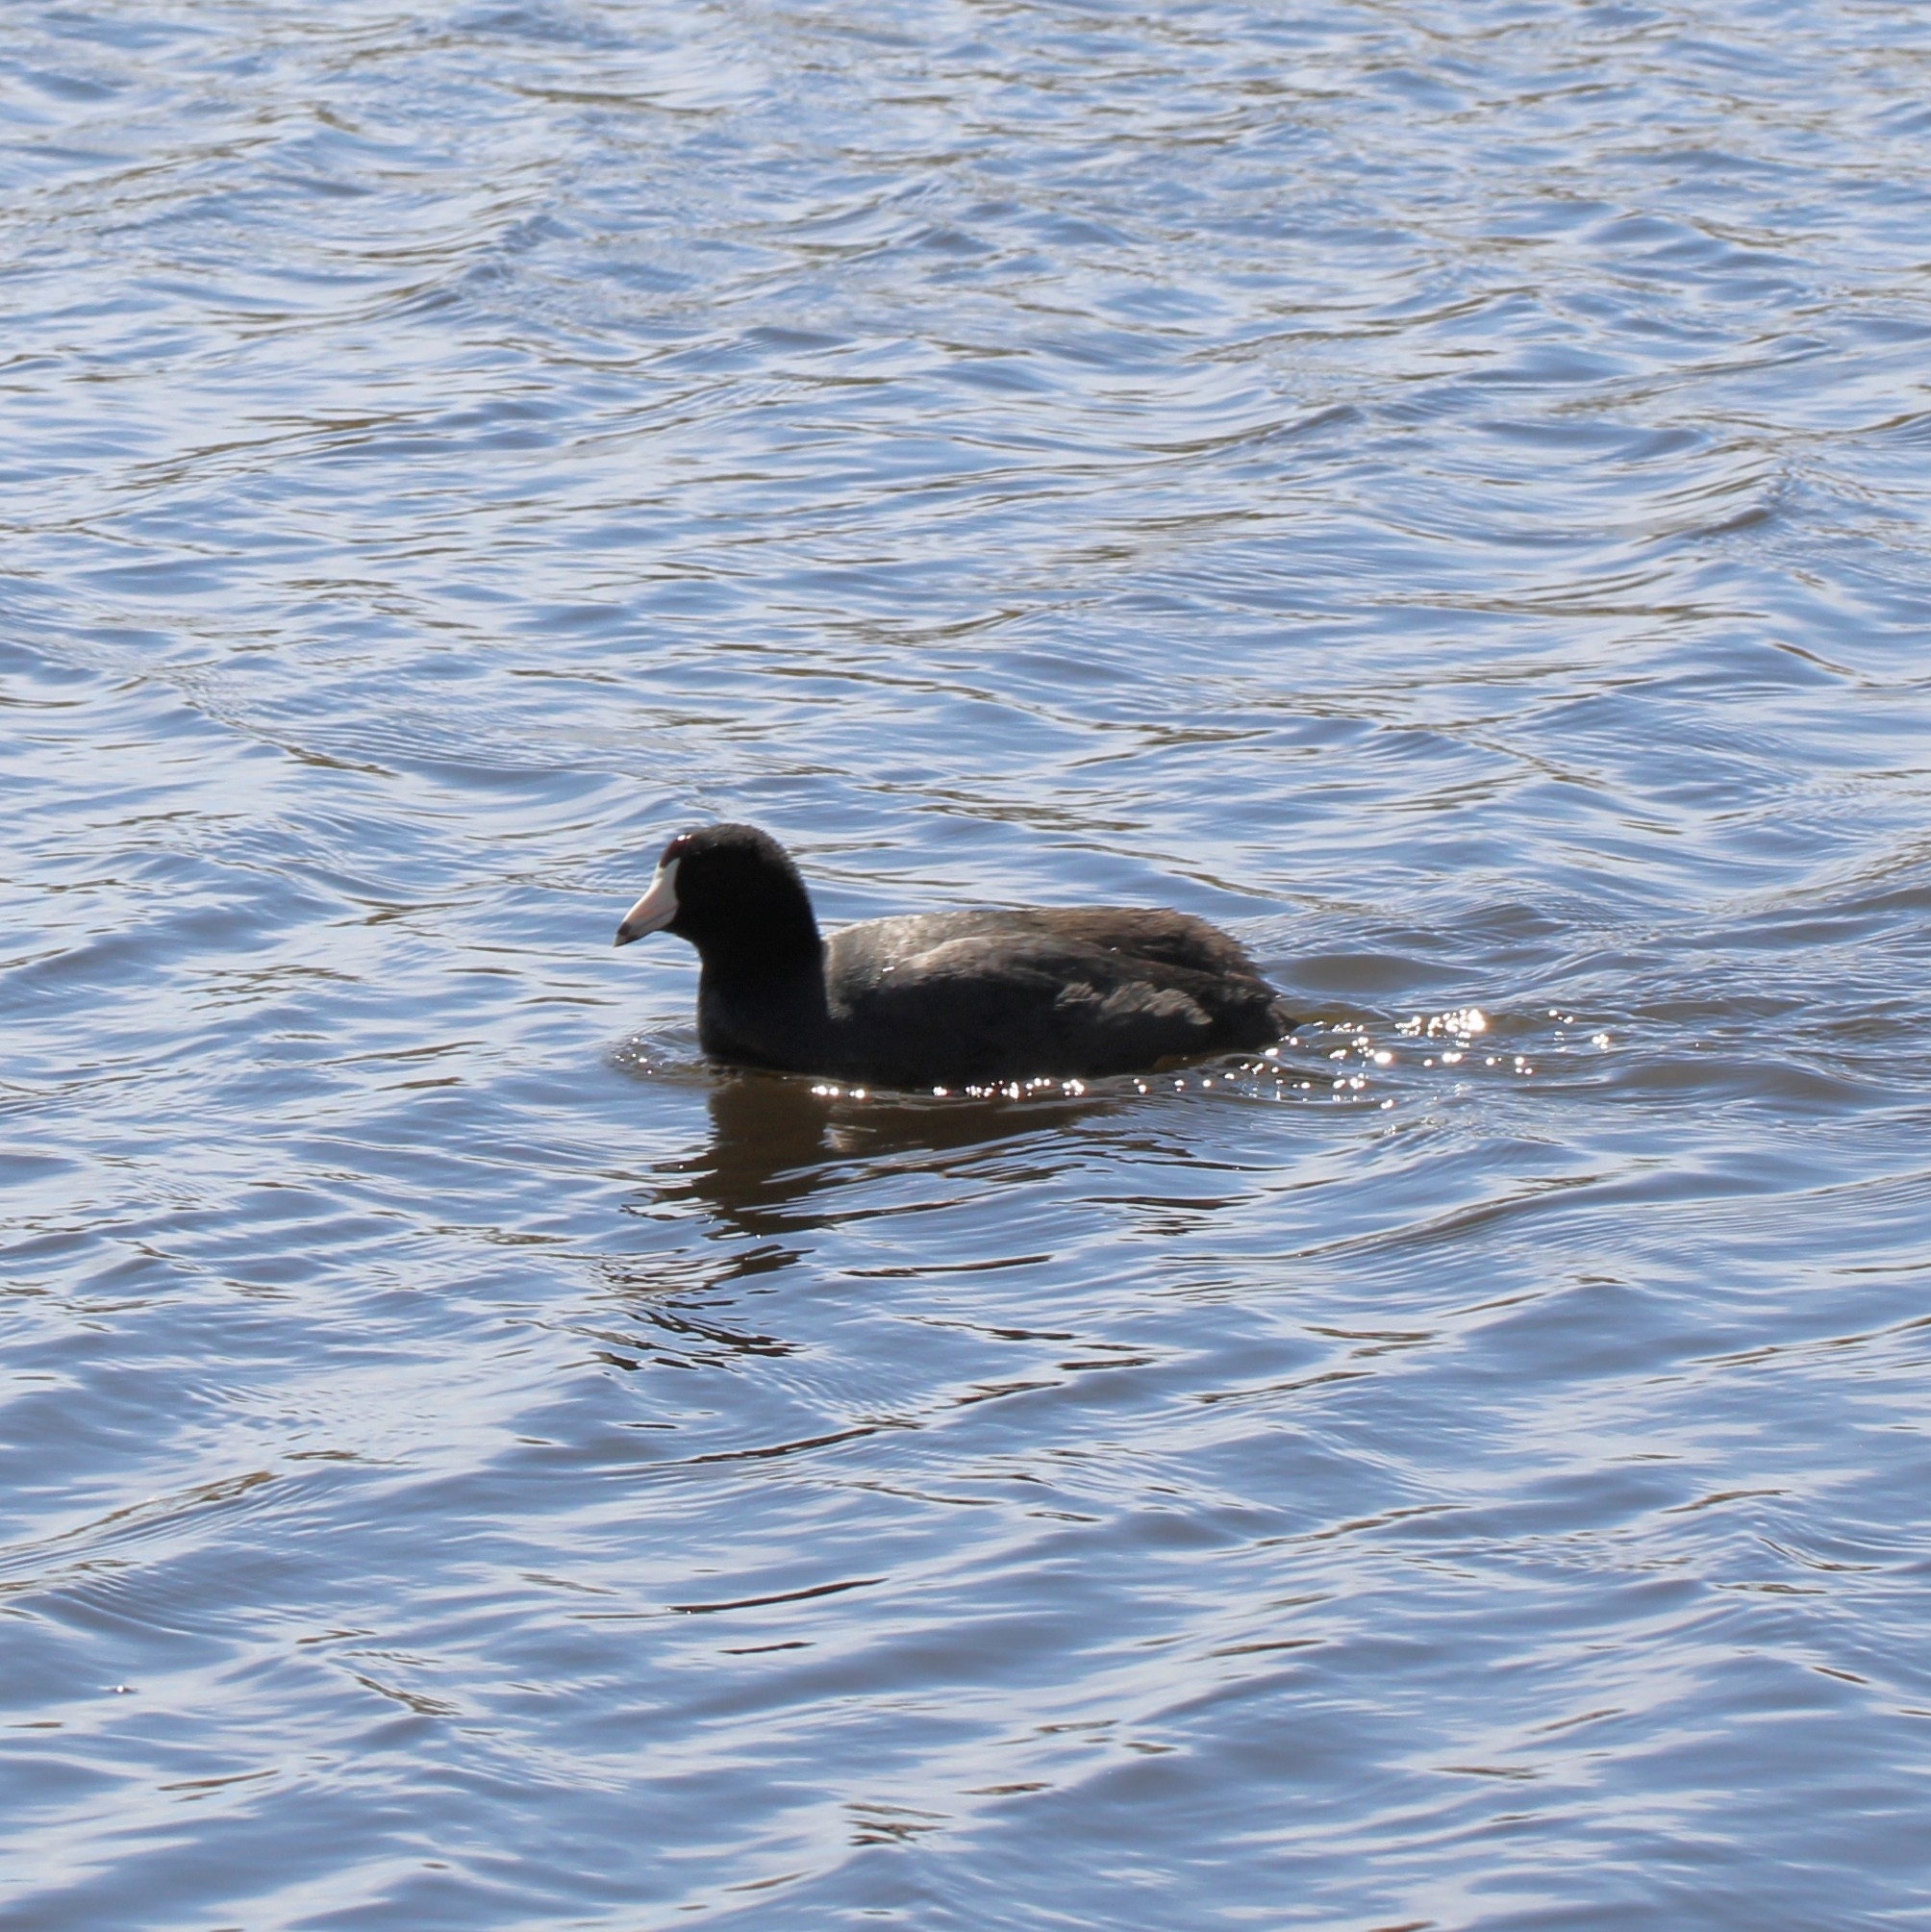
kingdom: Animalia
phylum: Chordata
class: Aves
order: Gruiformes
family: Rallidae
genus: Fulica
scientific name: Fulica americana
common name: American coot
